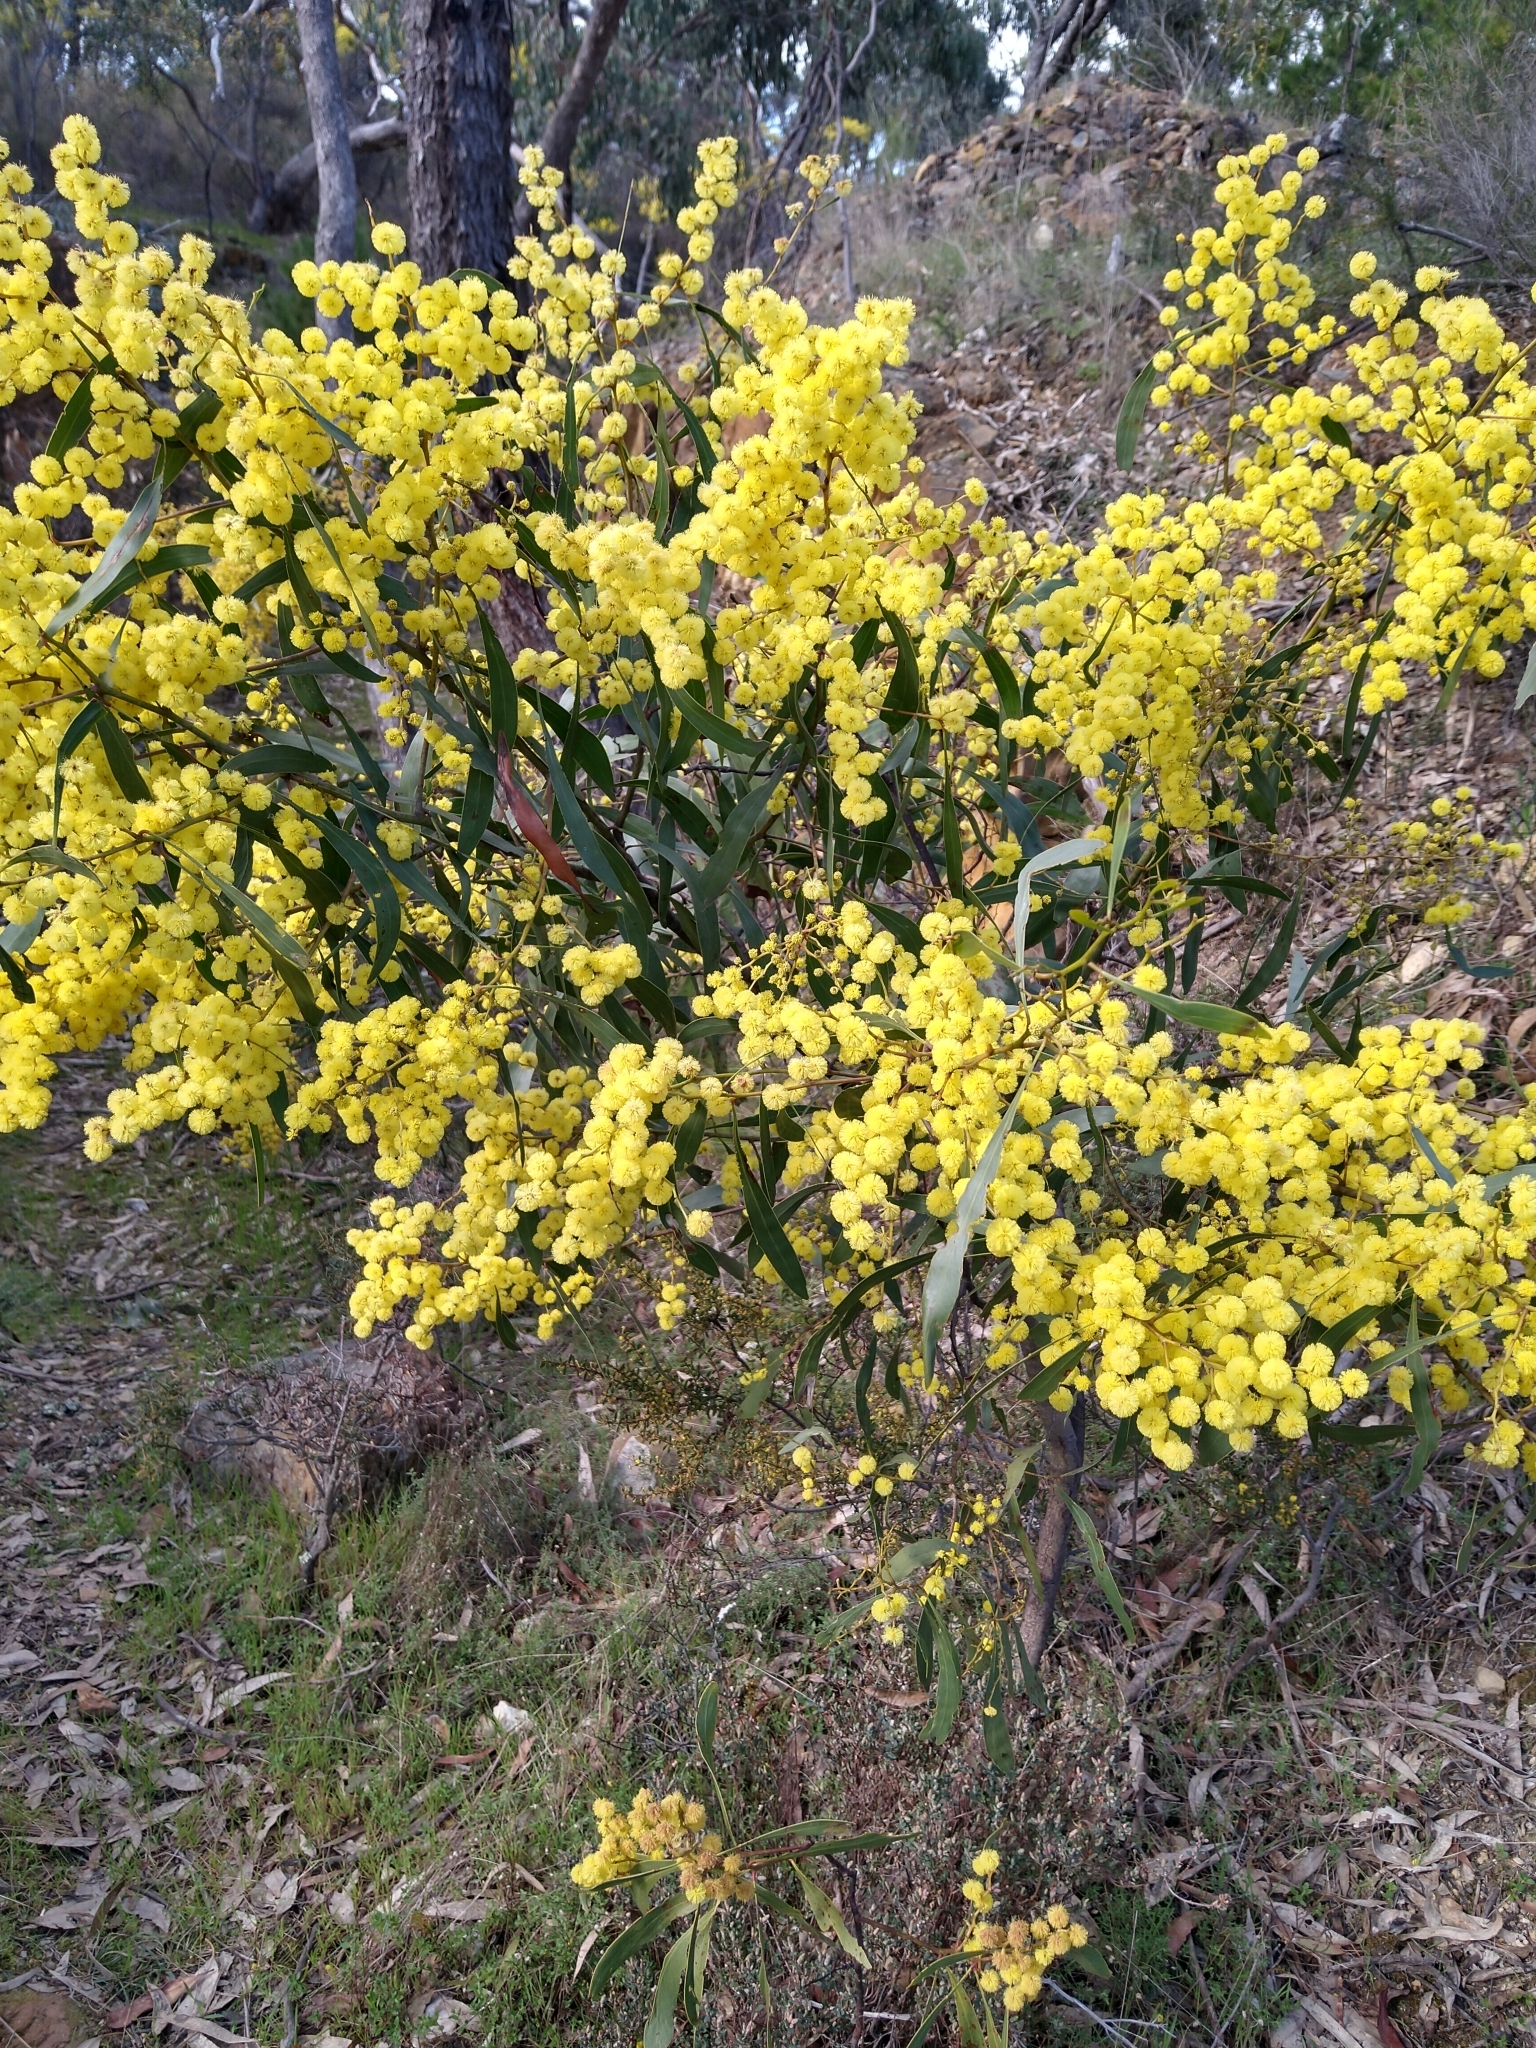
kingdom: Plantae
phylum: Tracheophyta
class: Magnoliopsida
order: Fabales
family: Fabaceae
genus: Acacia
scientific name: Acacia pycnantha
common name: Golden wattle
